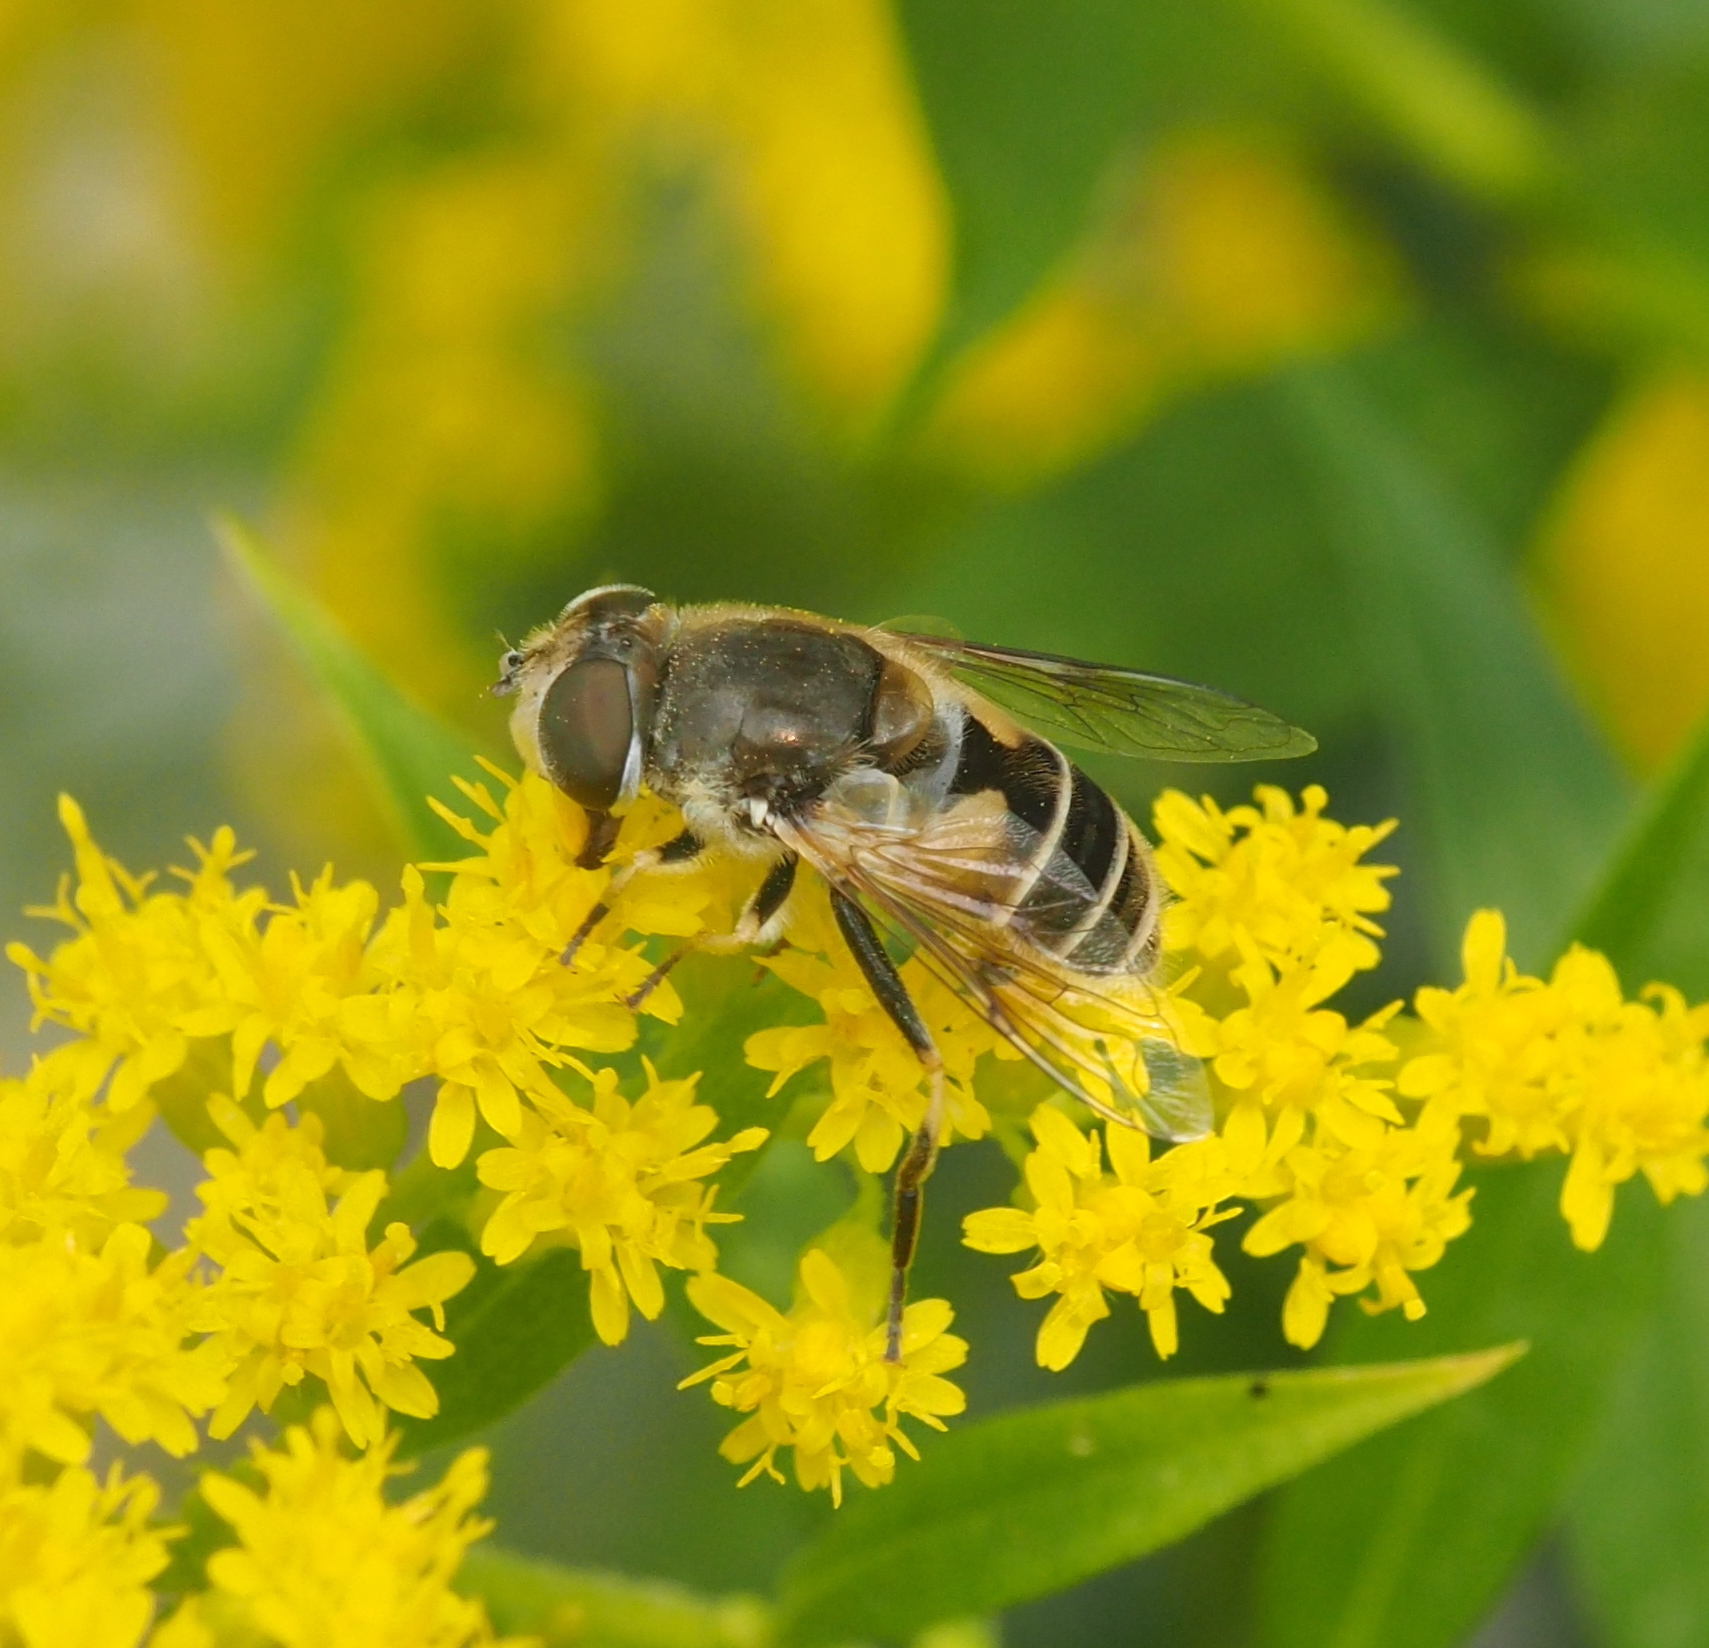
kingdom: Animalia
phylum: Arthropoda
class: Insecta
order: Diptera
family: Syrphidae
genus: Eristalis
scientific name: Eristalis arbustorum
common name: Hover fly
